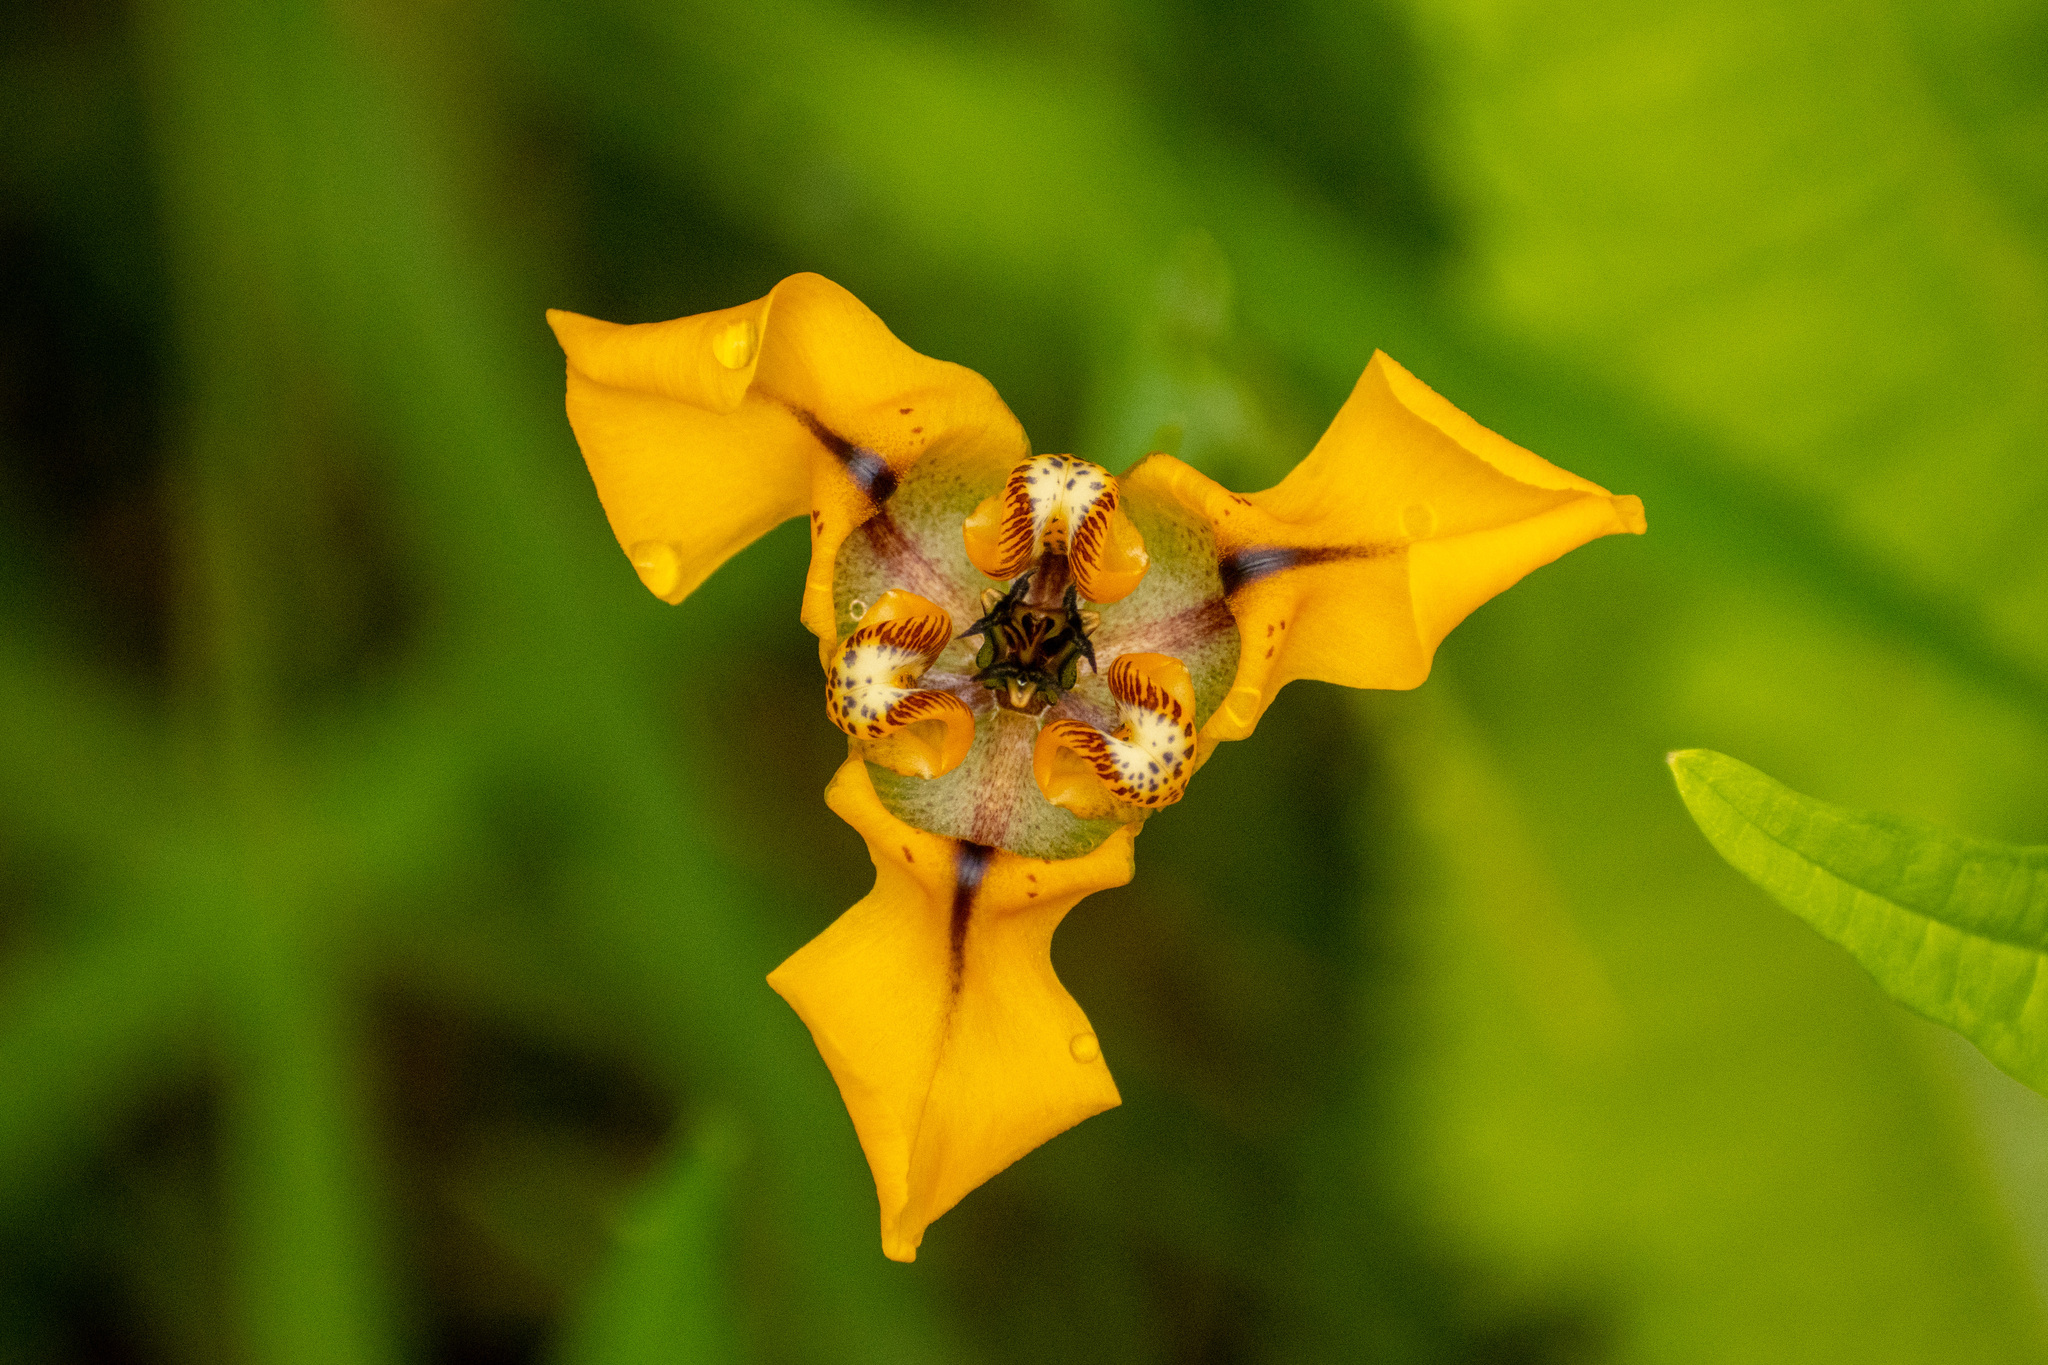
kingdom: Plantae
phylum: Tracheophyta
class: Liliopsida
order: Asparagales
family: Iridaceae
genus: Cypella
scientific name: Cypella herbertii
